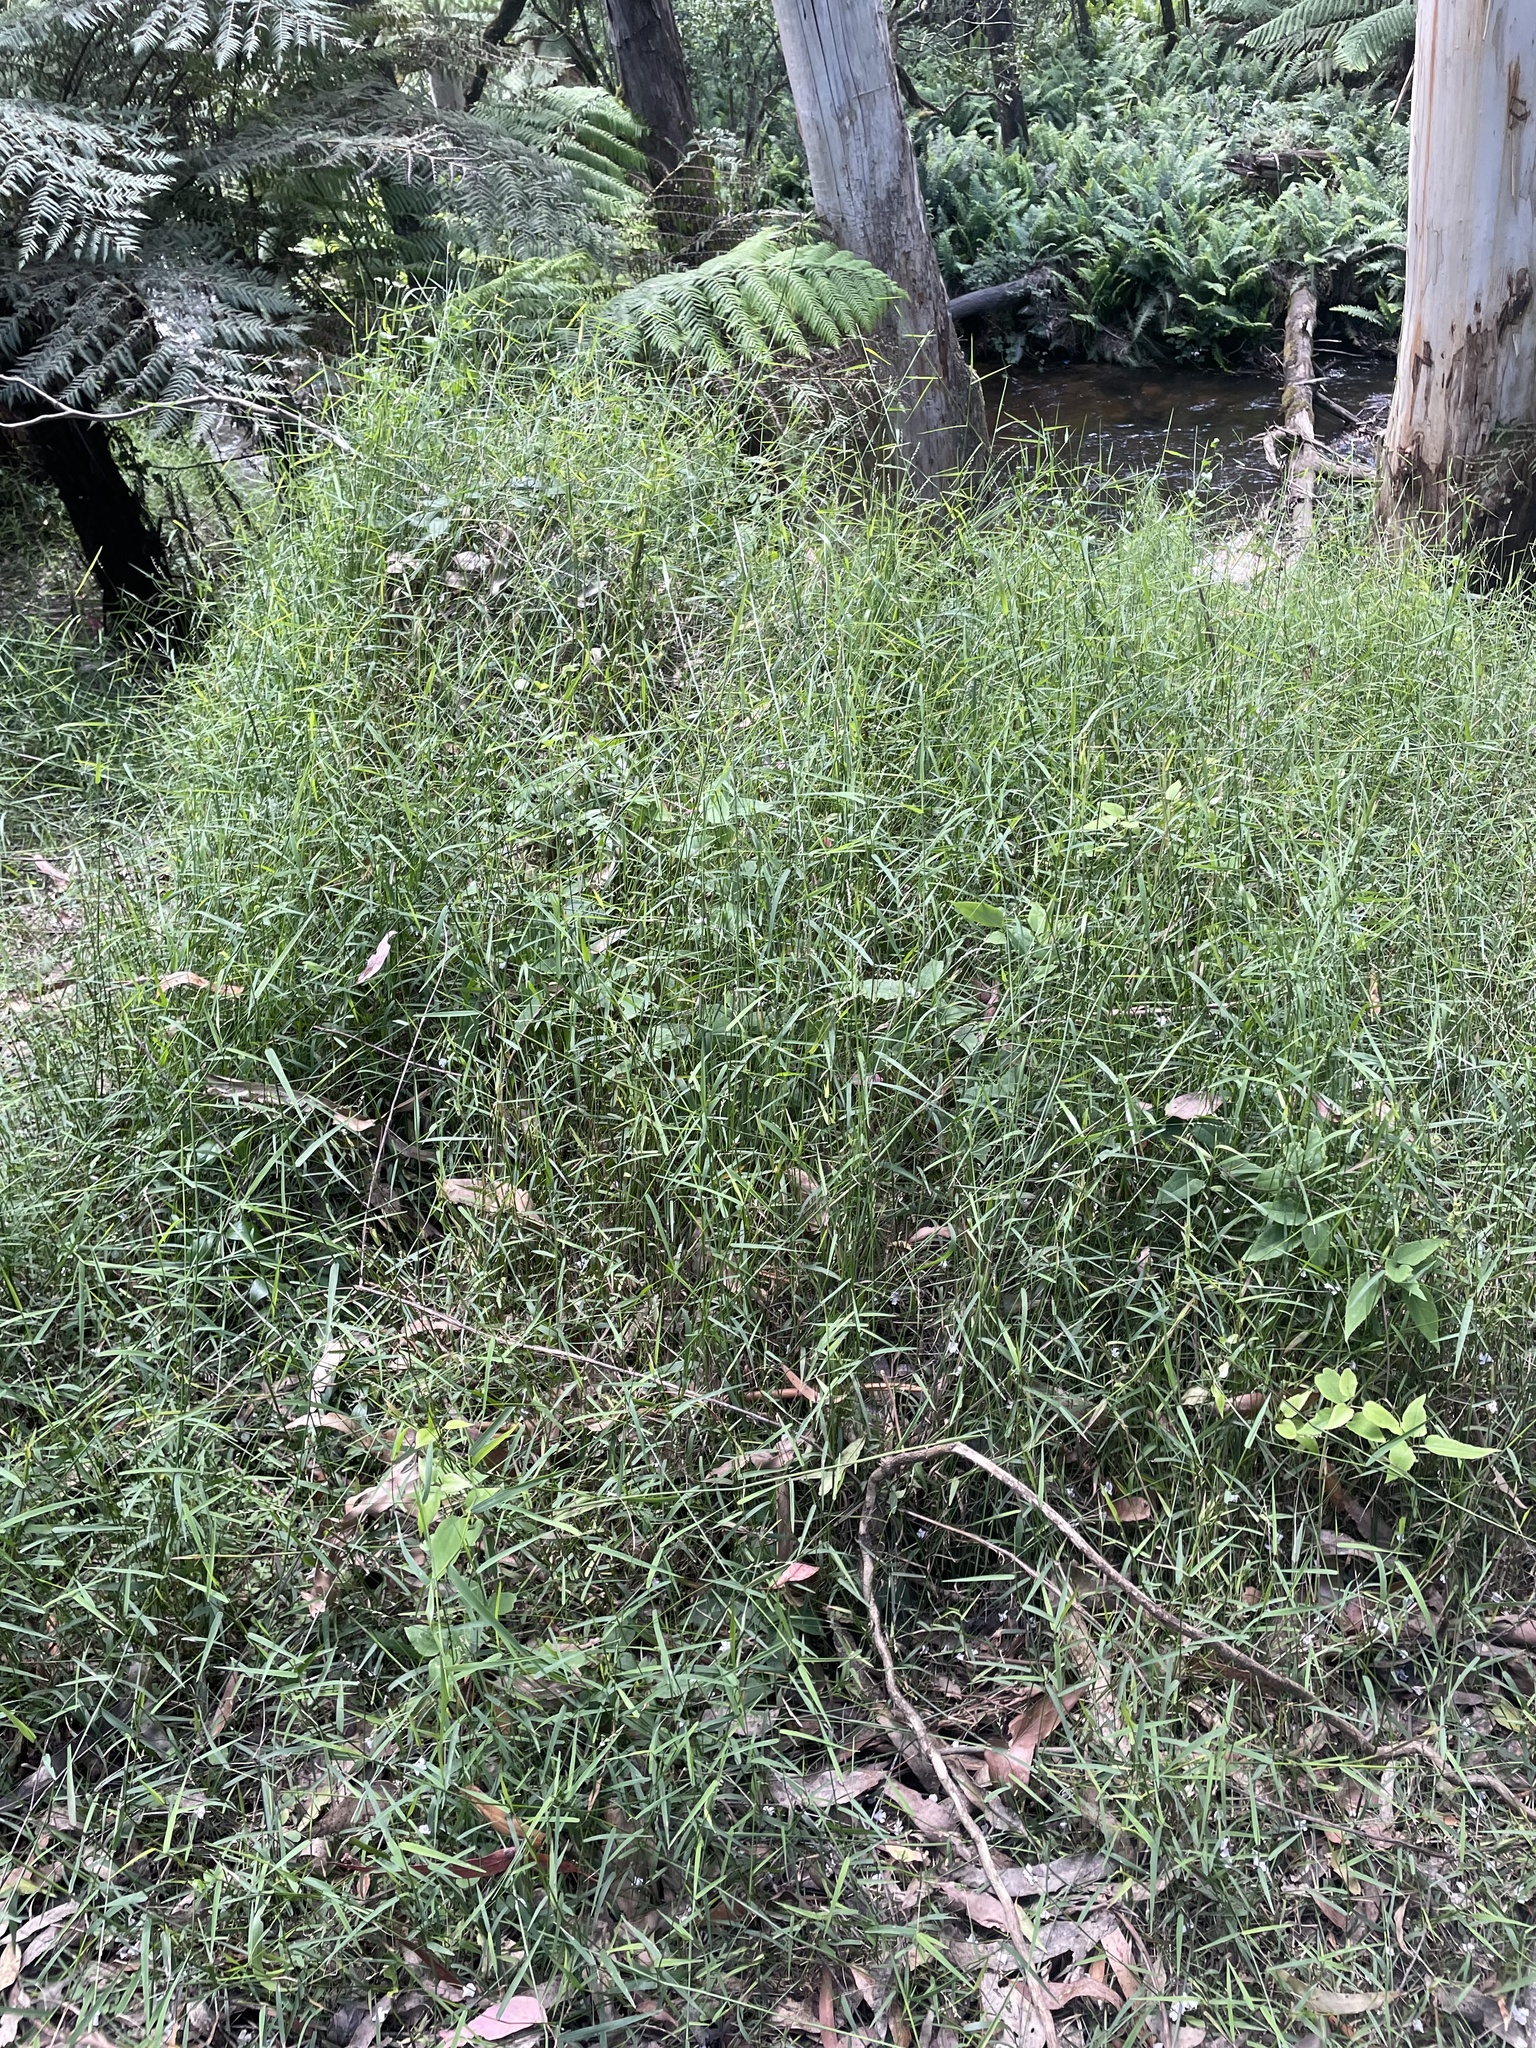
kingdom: Plantae
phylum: Tracheophyta
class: Liliopsida
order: Poales
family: Poaceae
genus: Tetrarrhena
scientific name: Tetrarrhena juncea
